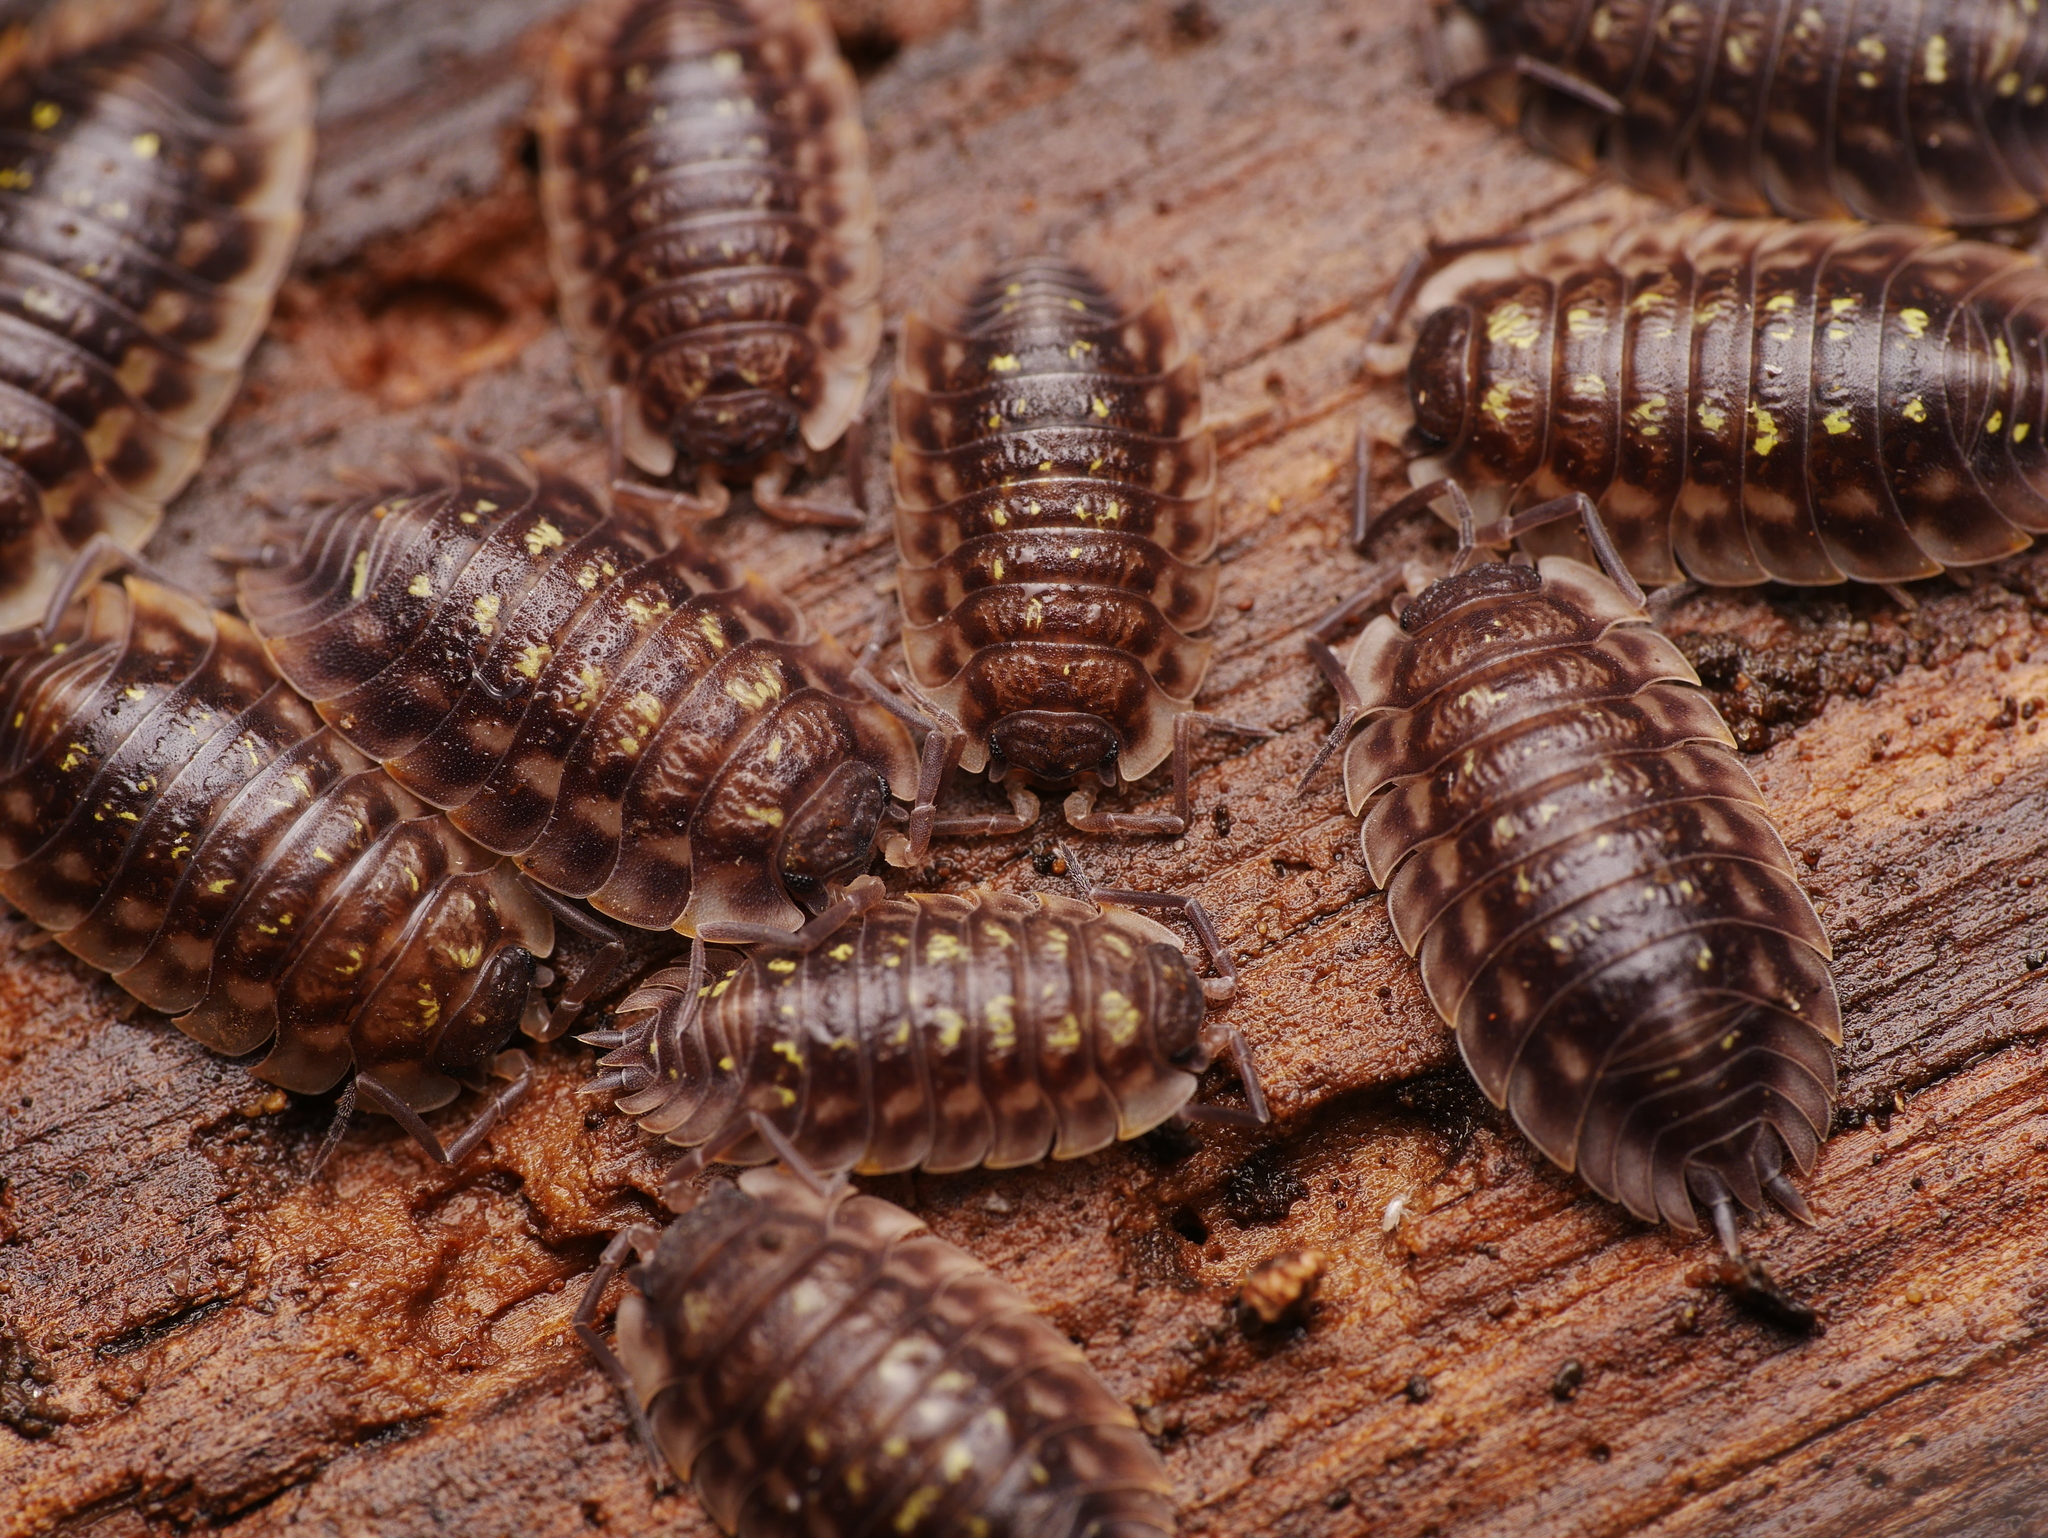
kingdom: Animalia
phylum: Arthropoda
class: Malacostraca
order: Isopoda
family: Oniscidae
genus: Oniscus
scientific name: Oniscus asellus
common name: Common shiny woodlouse
